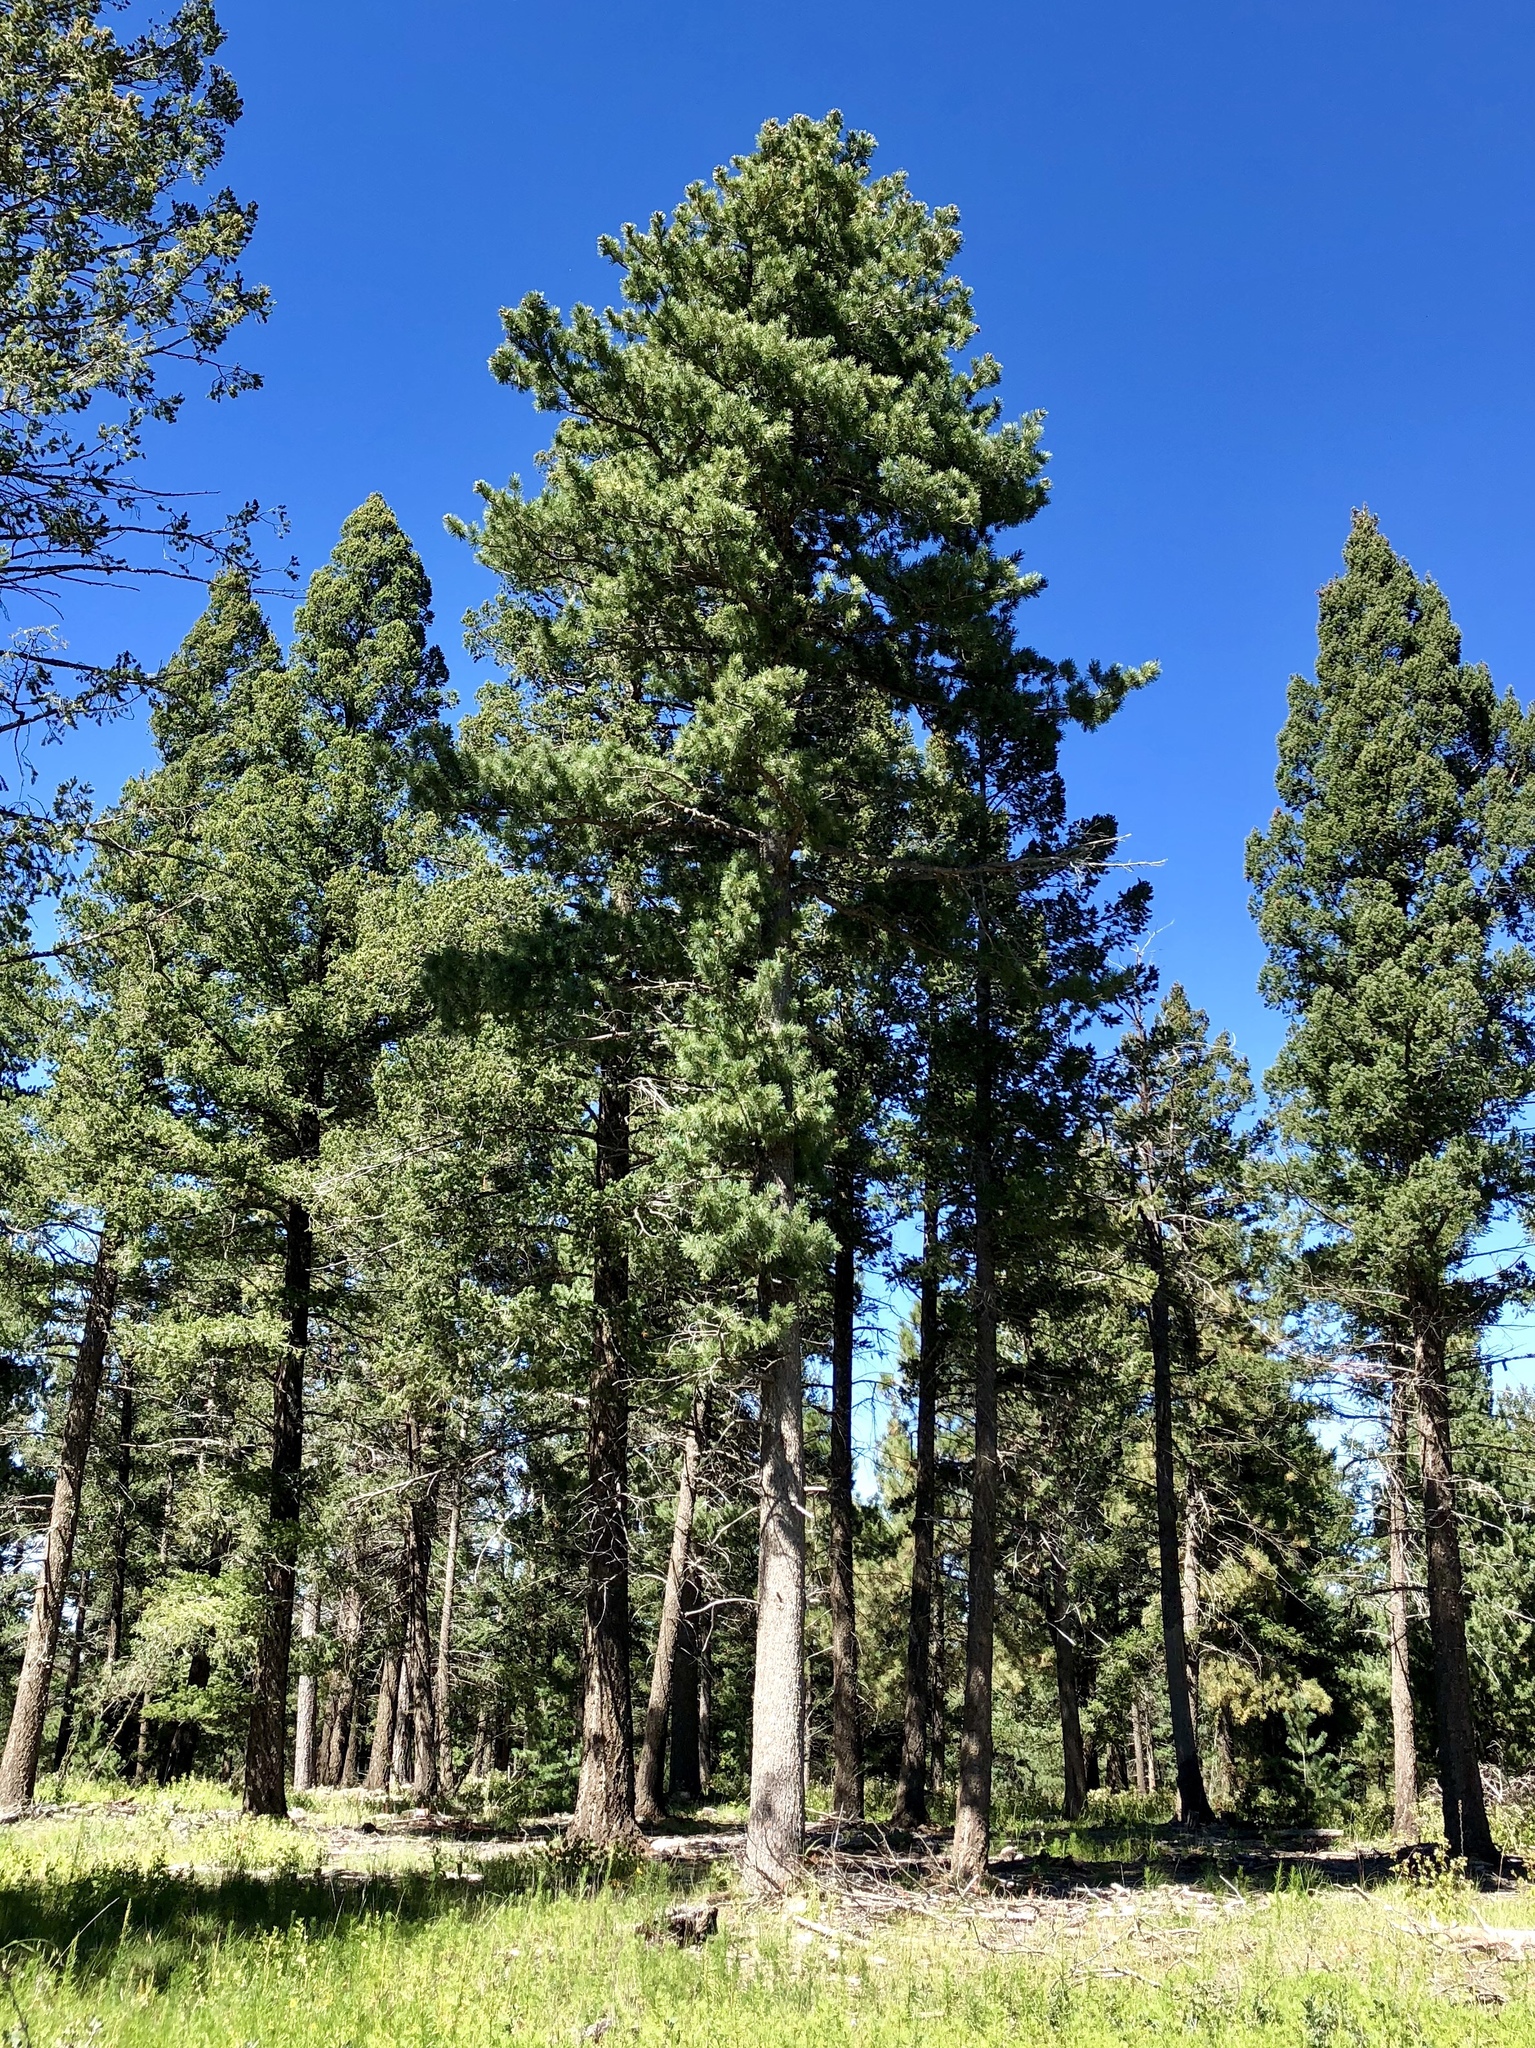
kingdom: Plantae
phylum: Tracheophyta
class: Pinopsida
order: Pinales
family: Pinaceae
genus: Pinus
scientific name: Pinus strobiformis
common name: Southwestern white pine
